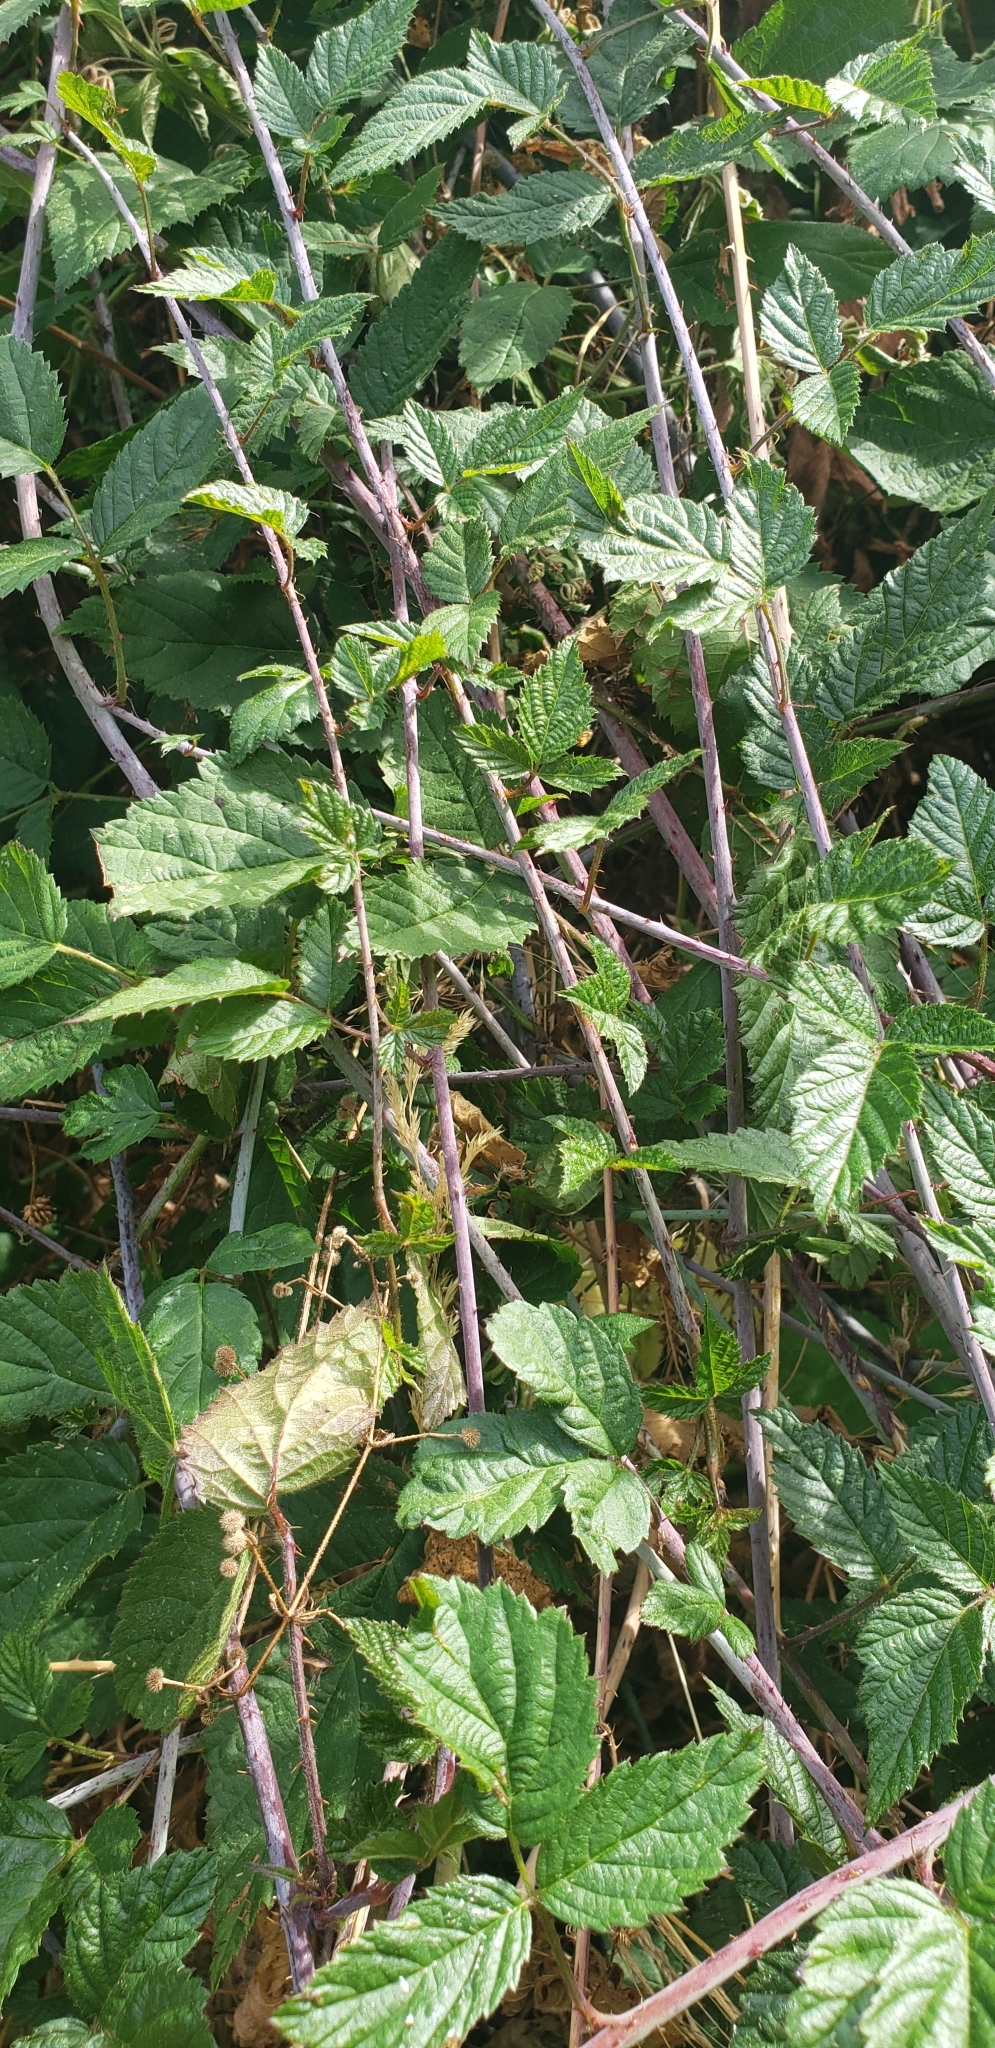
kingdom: Plantae
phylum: Tracheophyta
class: Magnoliopsida
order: Rosales
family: Rosaceae
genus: Rubus
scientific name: Rubus ursinus
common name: Pacific blackberry
